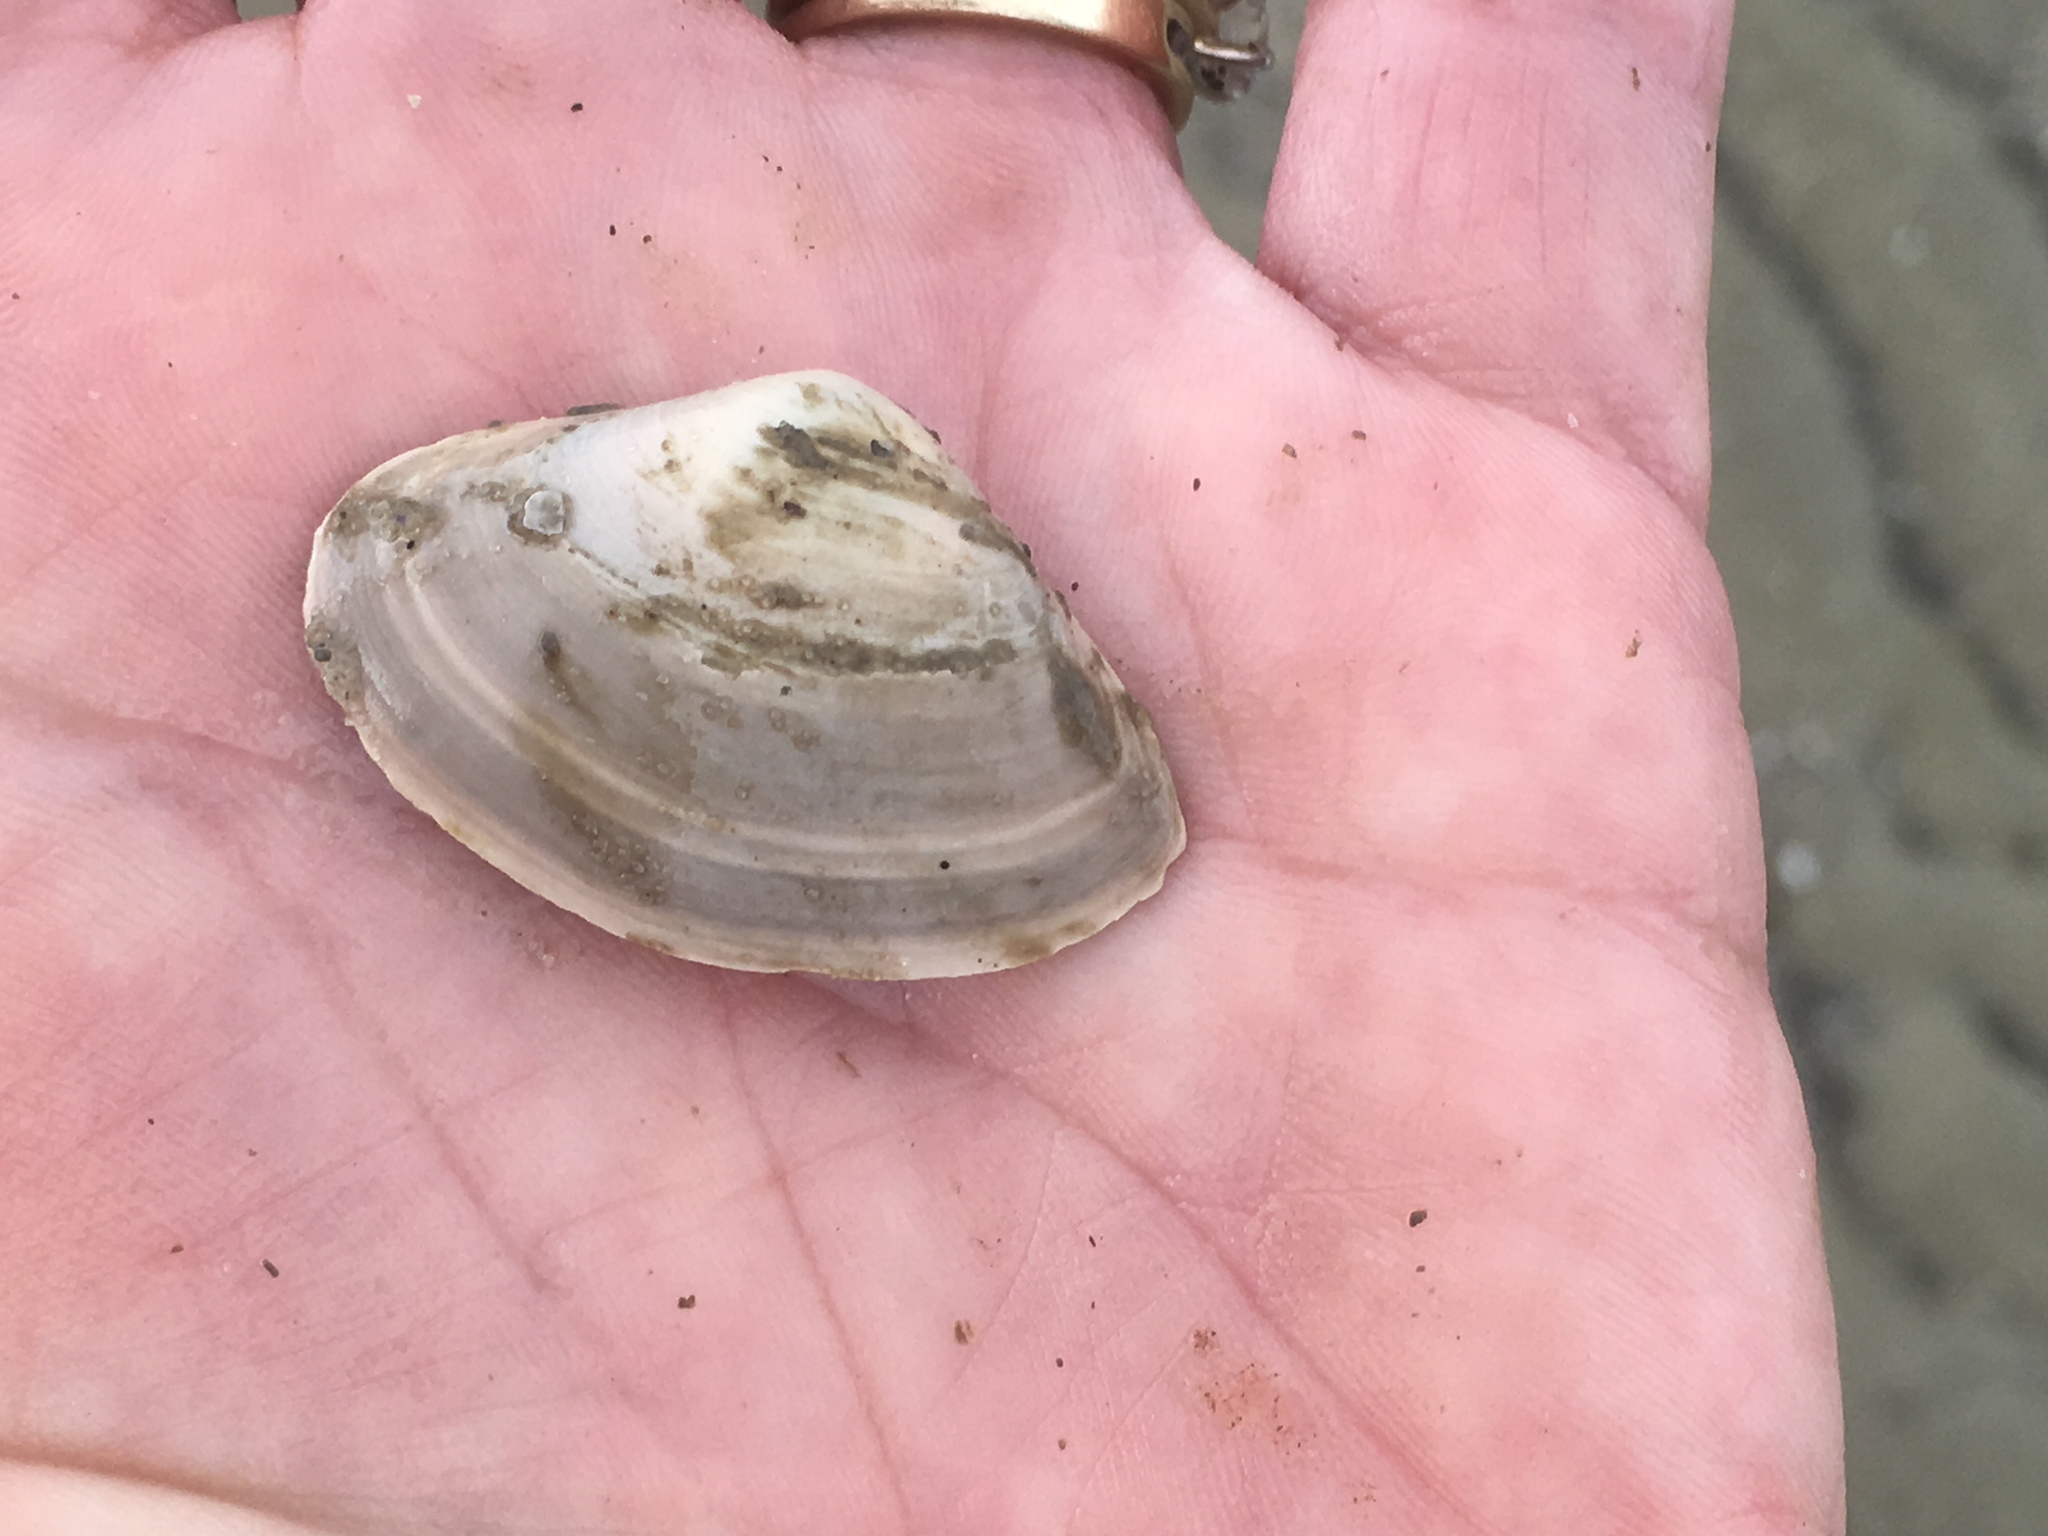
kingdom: Animalia
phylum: Mollusca
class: Bivalvia
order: Venerida
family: Mactridae
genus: Spisula
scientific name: Spisula solidissima
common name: Atlantic surf clam
